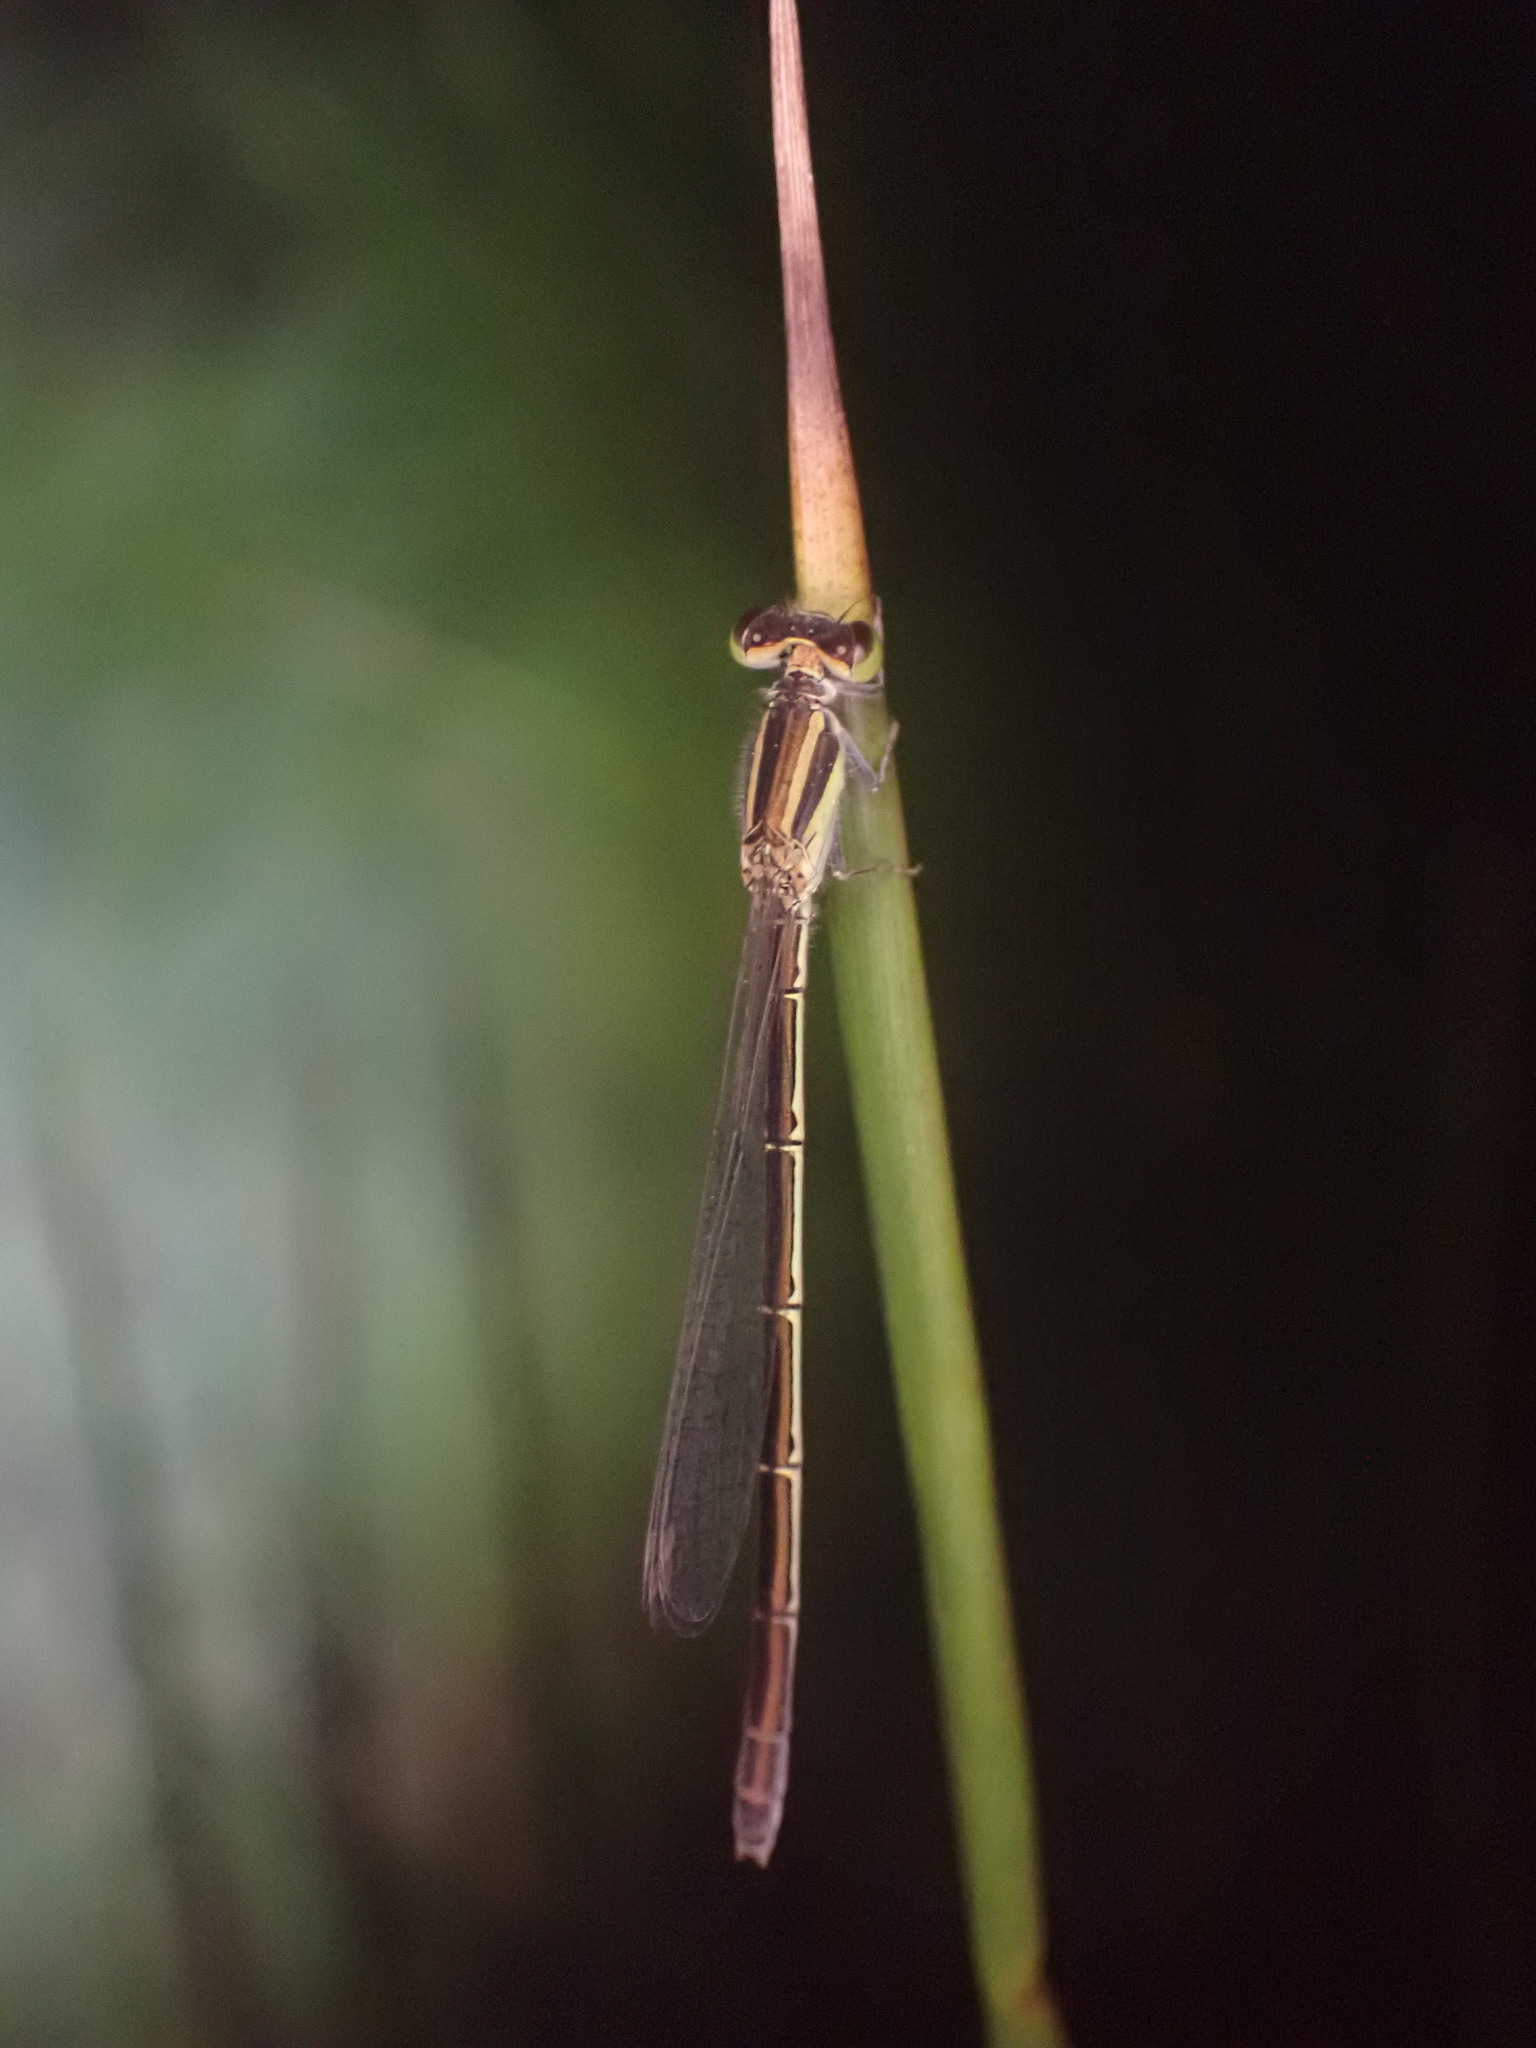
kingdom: Animalia
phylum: Arthropoda
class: Insecta
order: Odonata
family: Coenagrionidae
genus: Ischnura
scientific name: Ischnura aurora
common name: Gossamer damselfly
